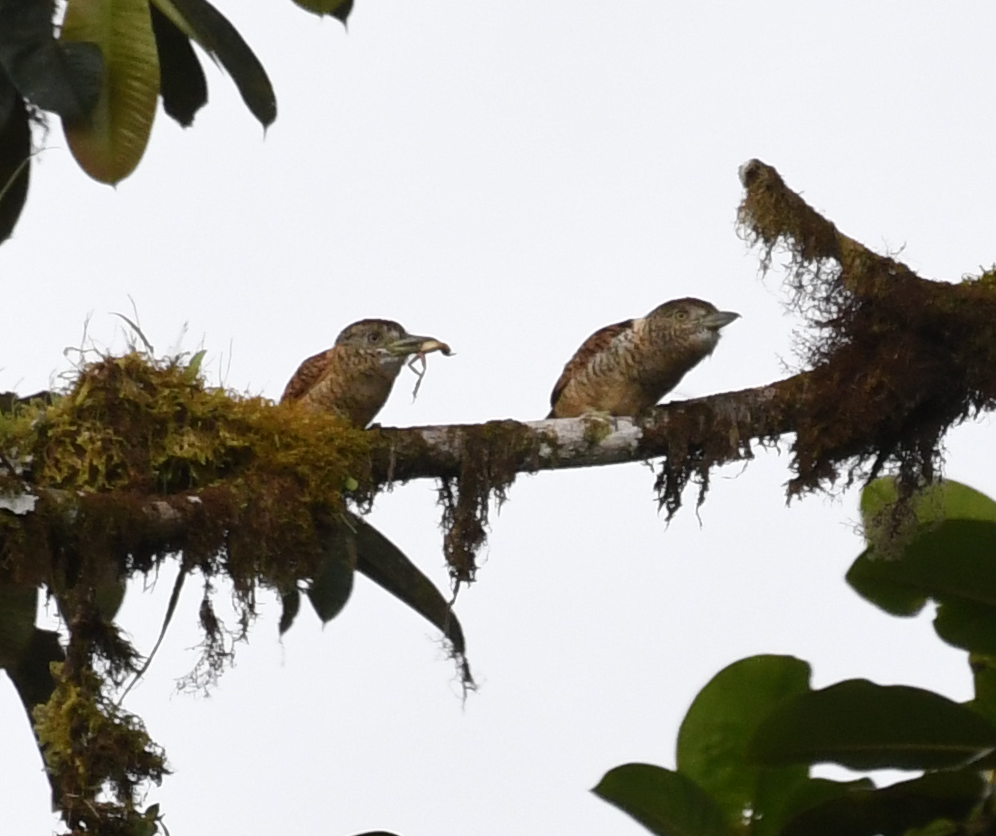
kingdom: Animalia
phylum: Chordata
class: Aves
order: Piciformes
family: Bucconidae
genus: Nystalus
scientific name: Nystalus radiatus
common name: Barred puffbird
